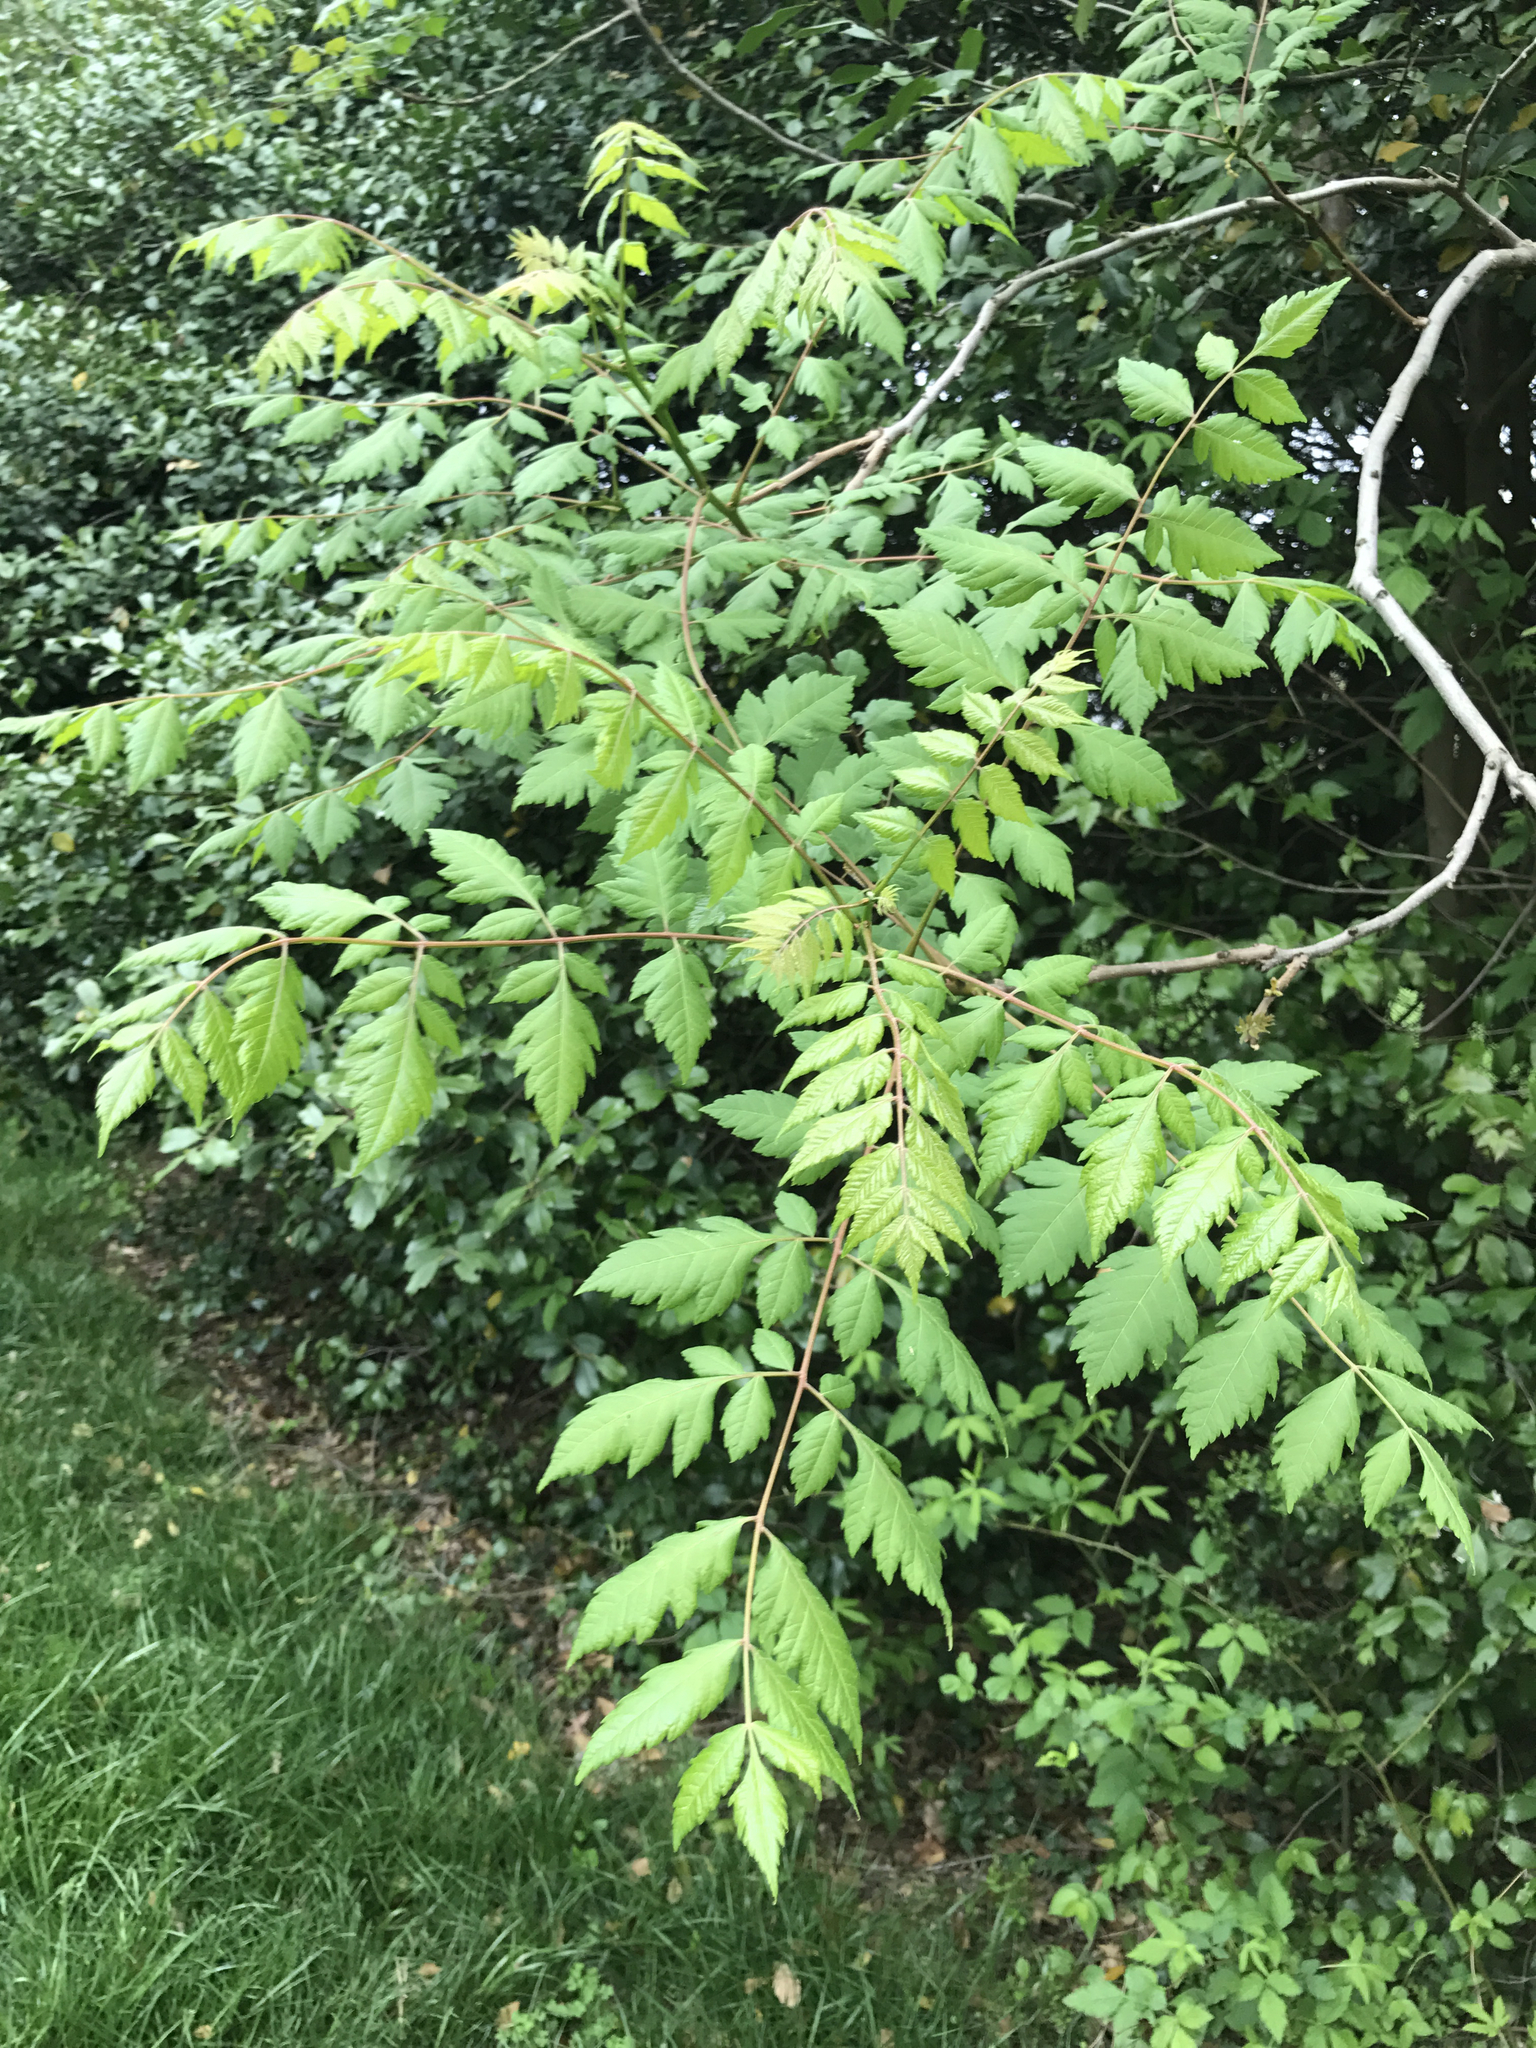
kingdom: Plantae
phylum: Tracheophyta
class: Magnoliopsida
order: Sapindales
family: Sapindaceae
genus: Koelreuteria
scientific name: Koelreuteria paniculata
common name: Pride-of-india
